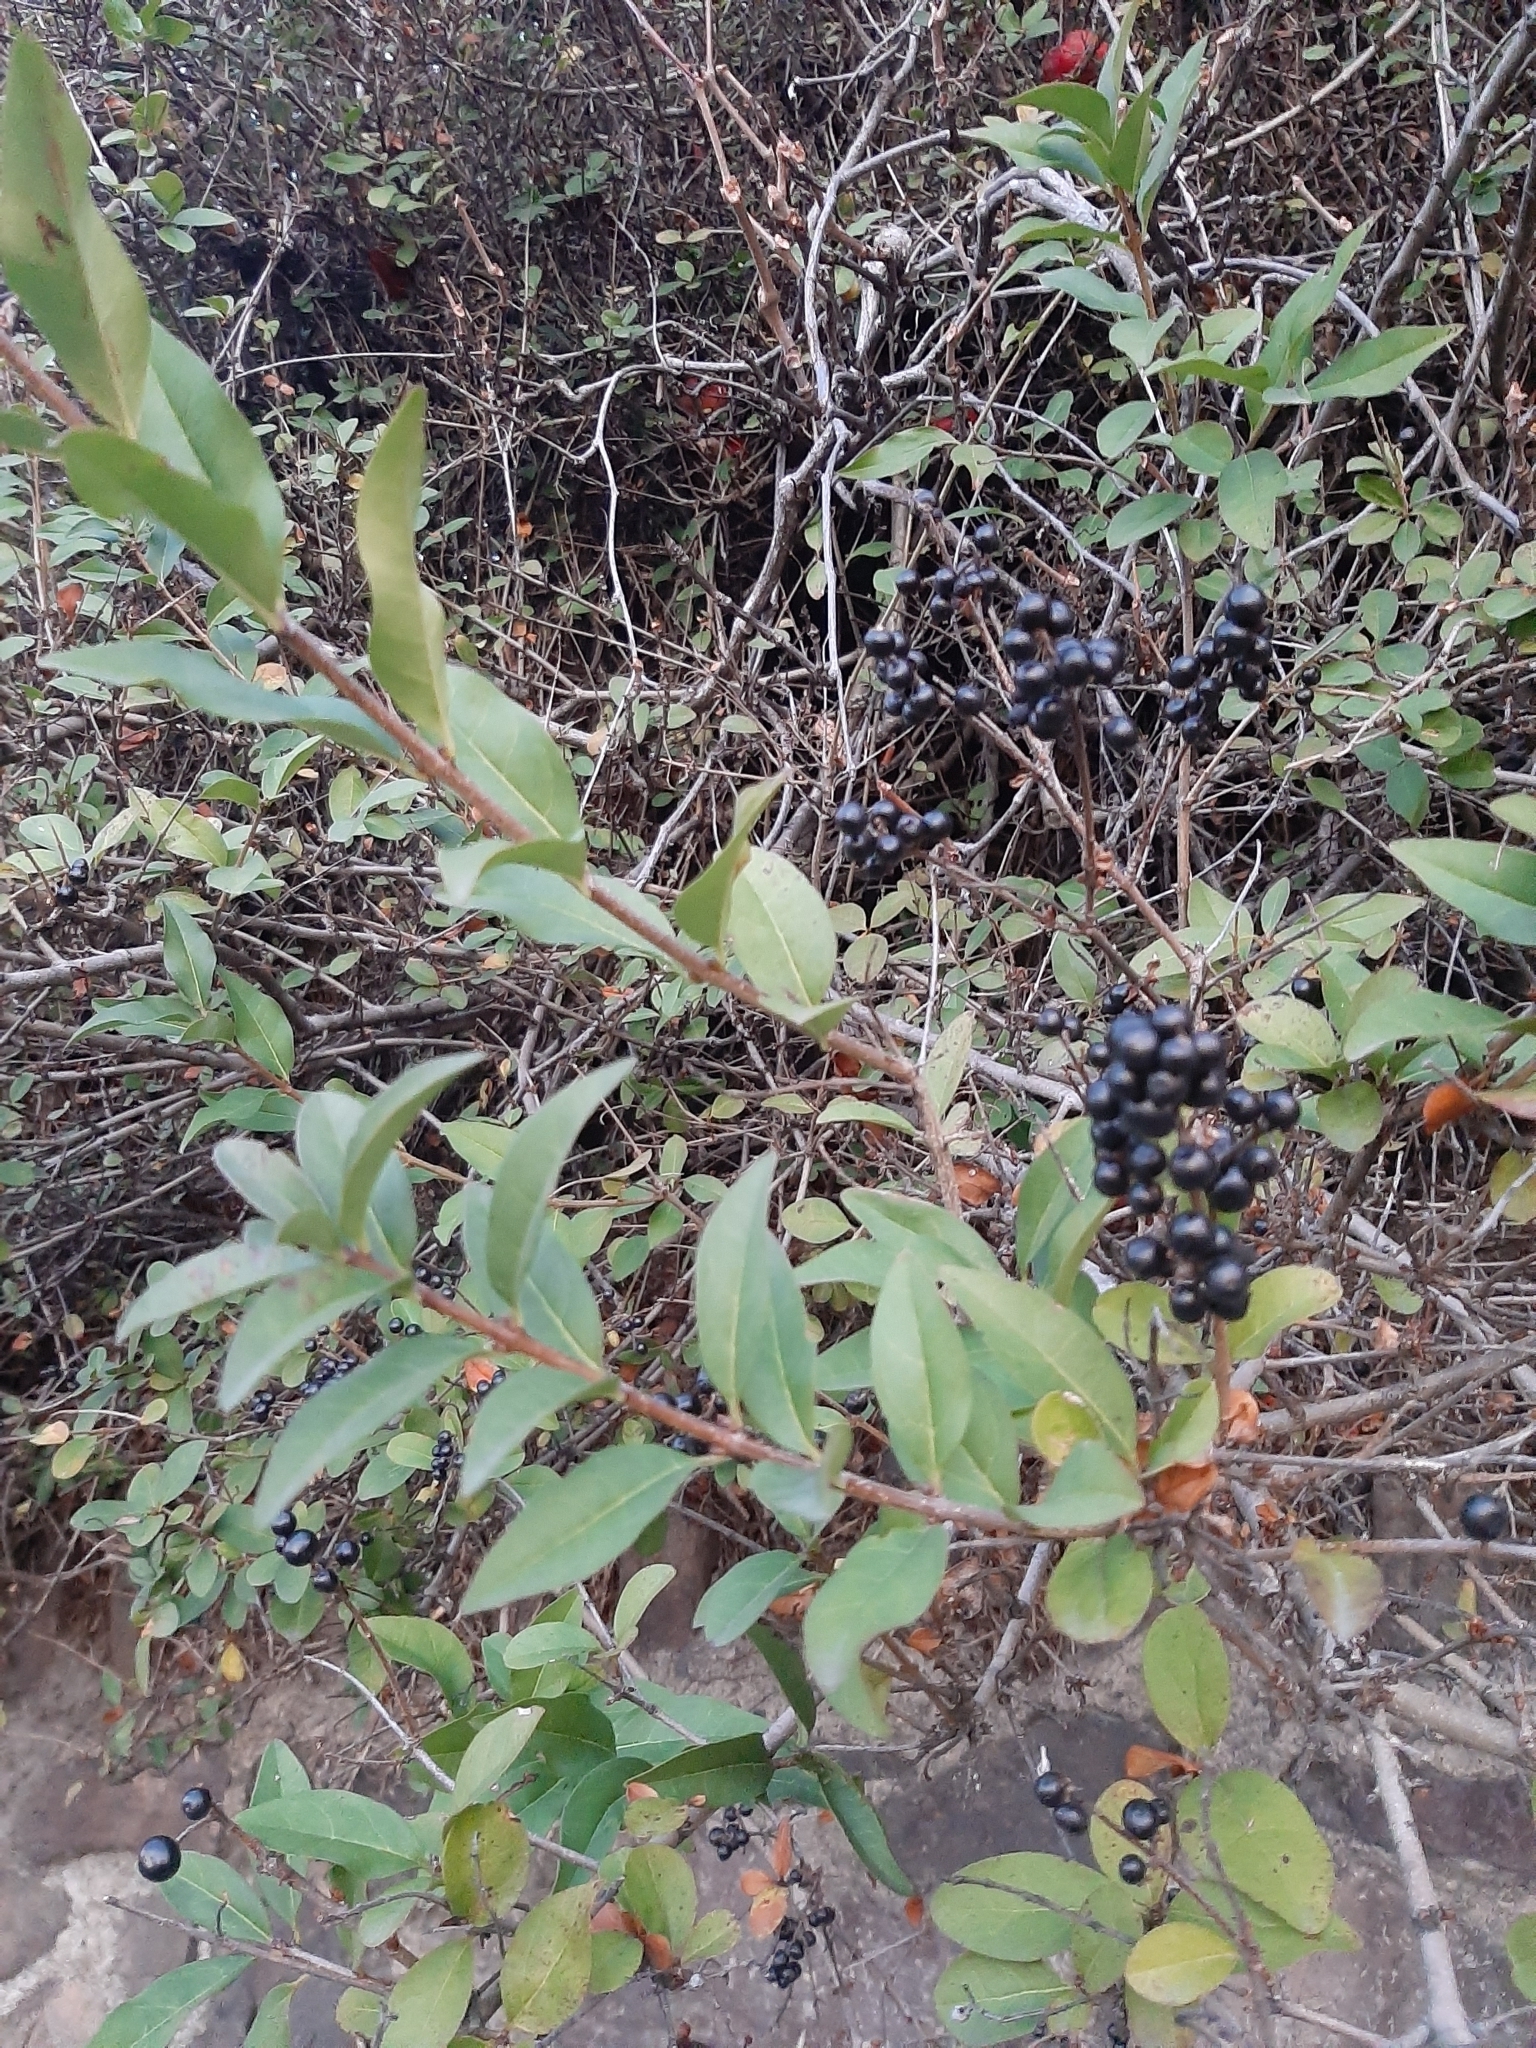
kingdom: Plantae
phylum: Tracheophyta
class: Magnoliopsida
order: Lamiales
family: Oleaceae
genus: Ligustrum
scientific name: Ligustrum vulgare
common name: Wild privet
